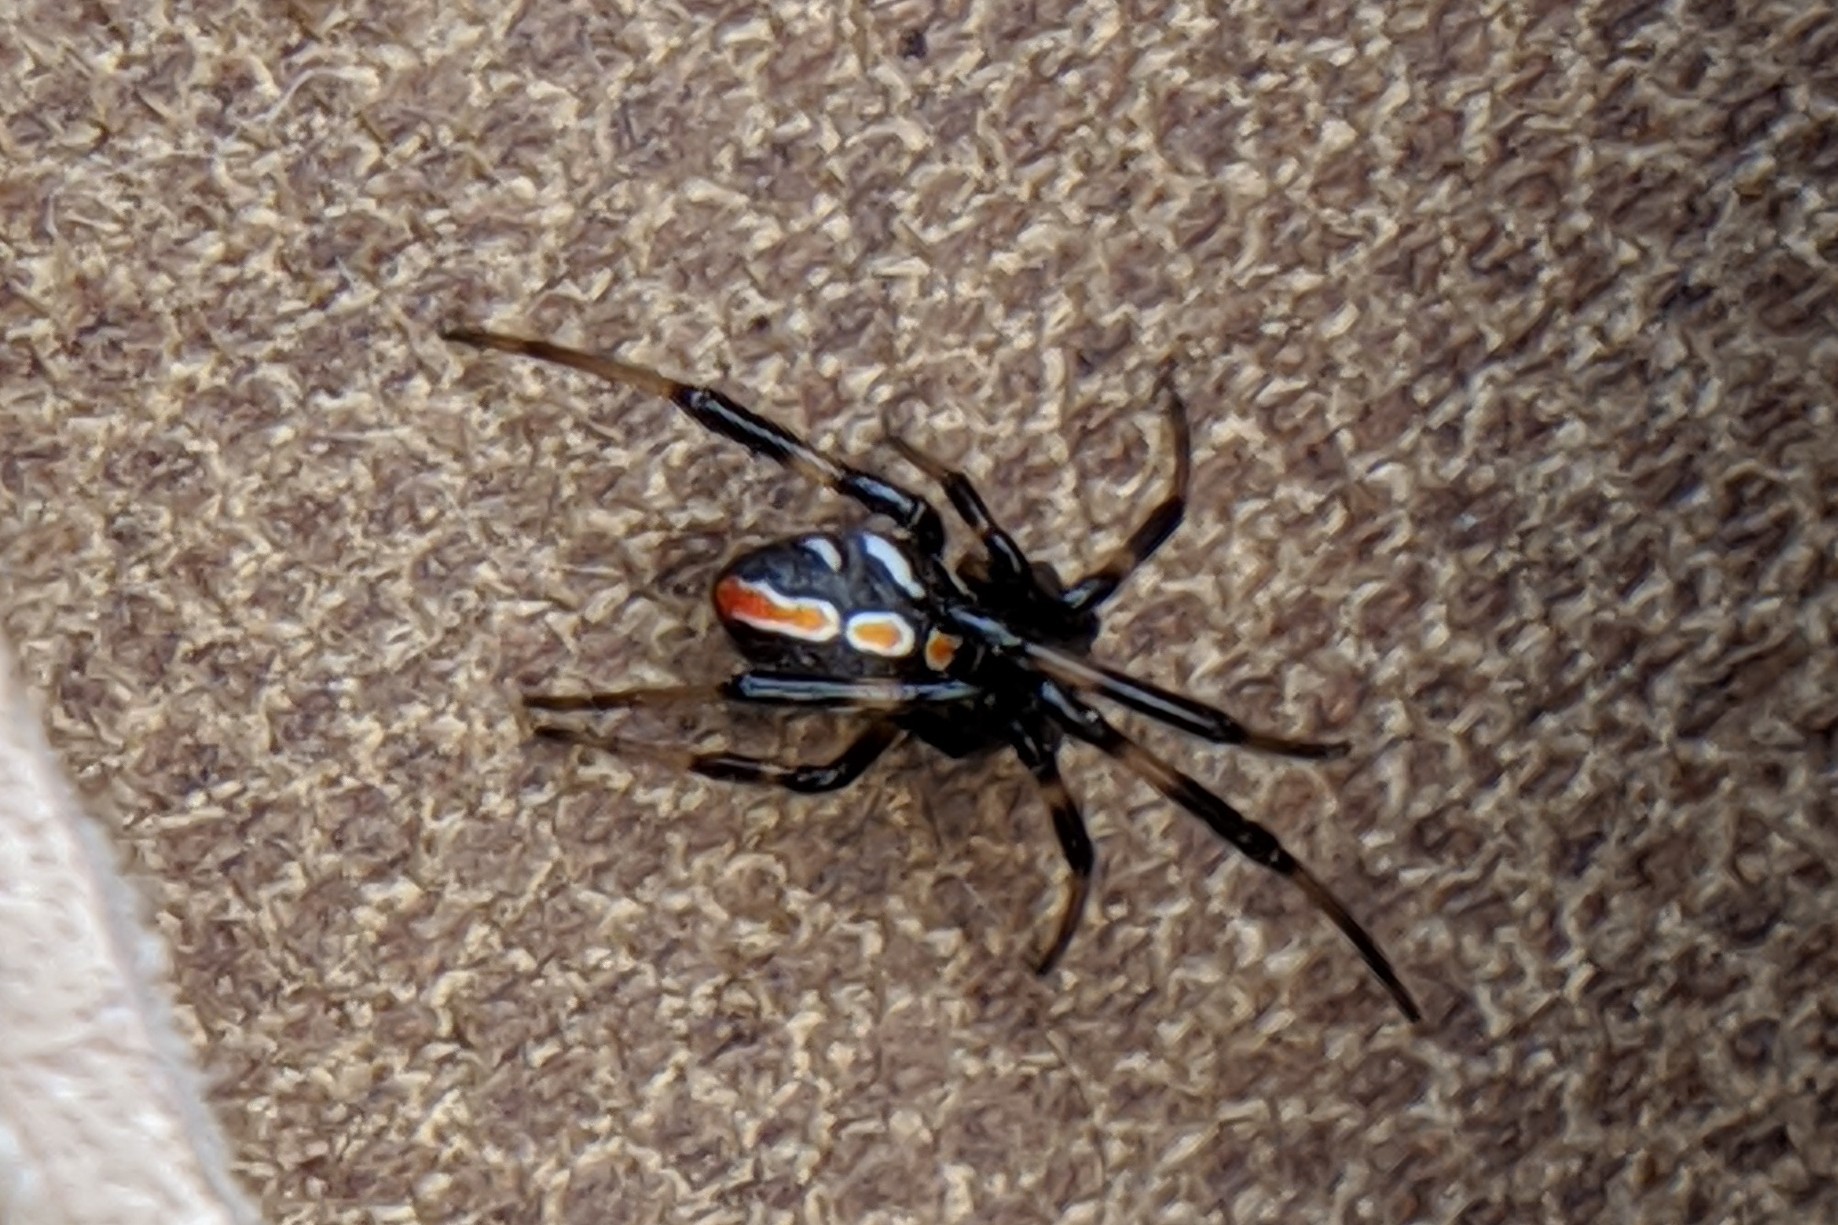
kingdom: Animalia
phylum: Arthropoda
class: Arachnida
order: Araneae
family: Theridiidae
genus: Latrodectus
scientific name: Latrodectus hesperus
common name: Western black widow
